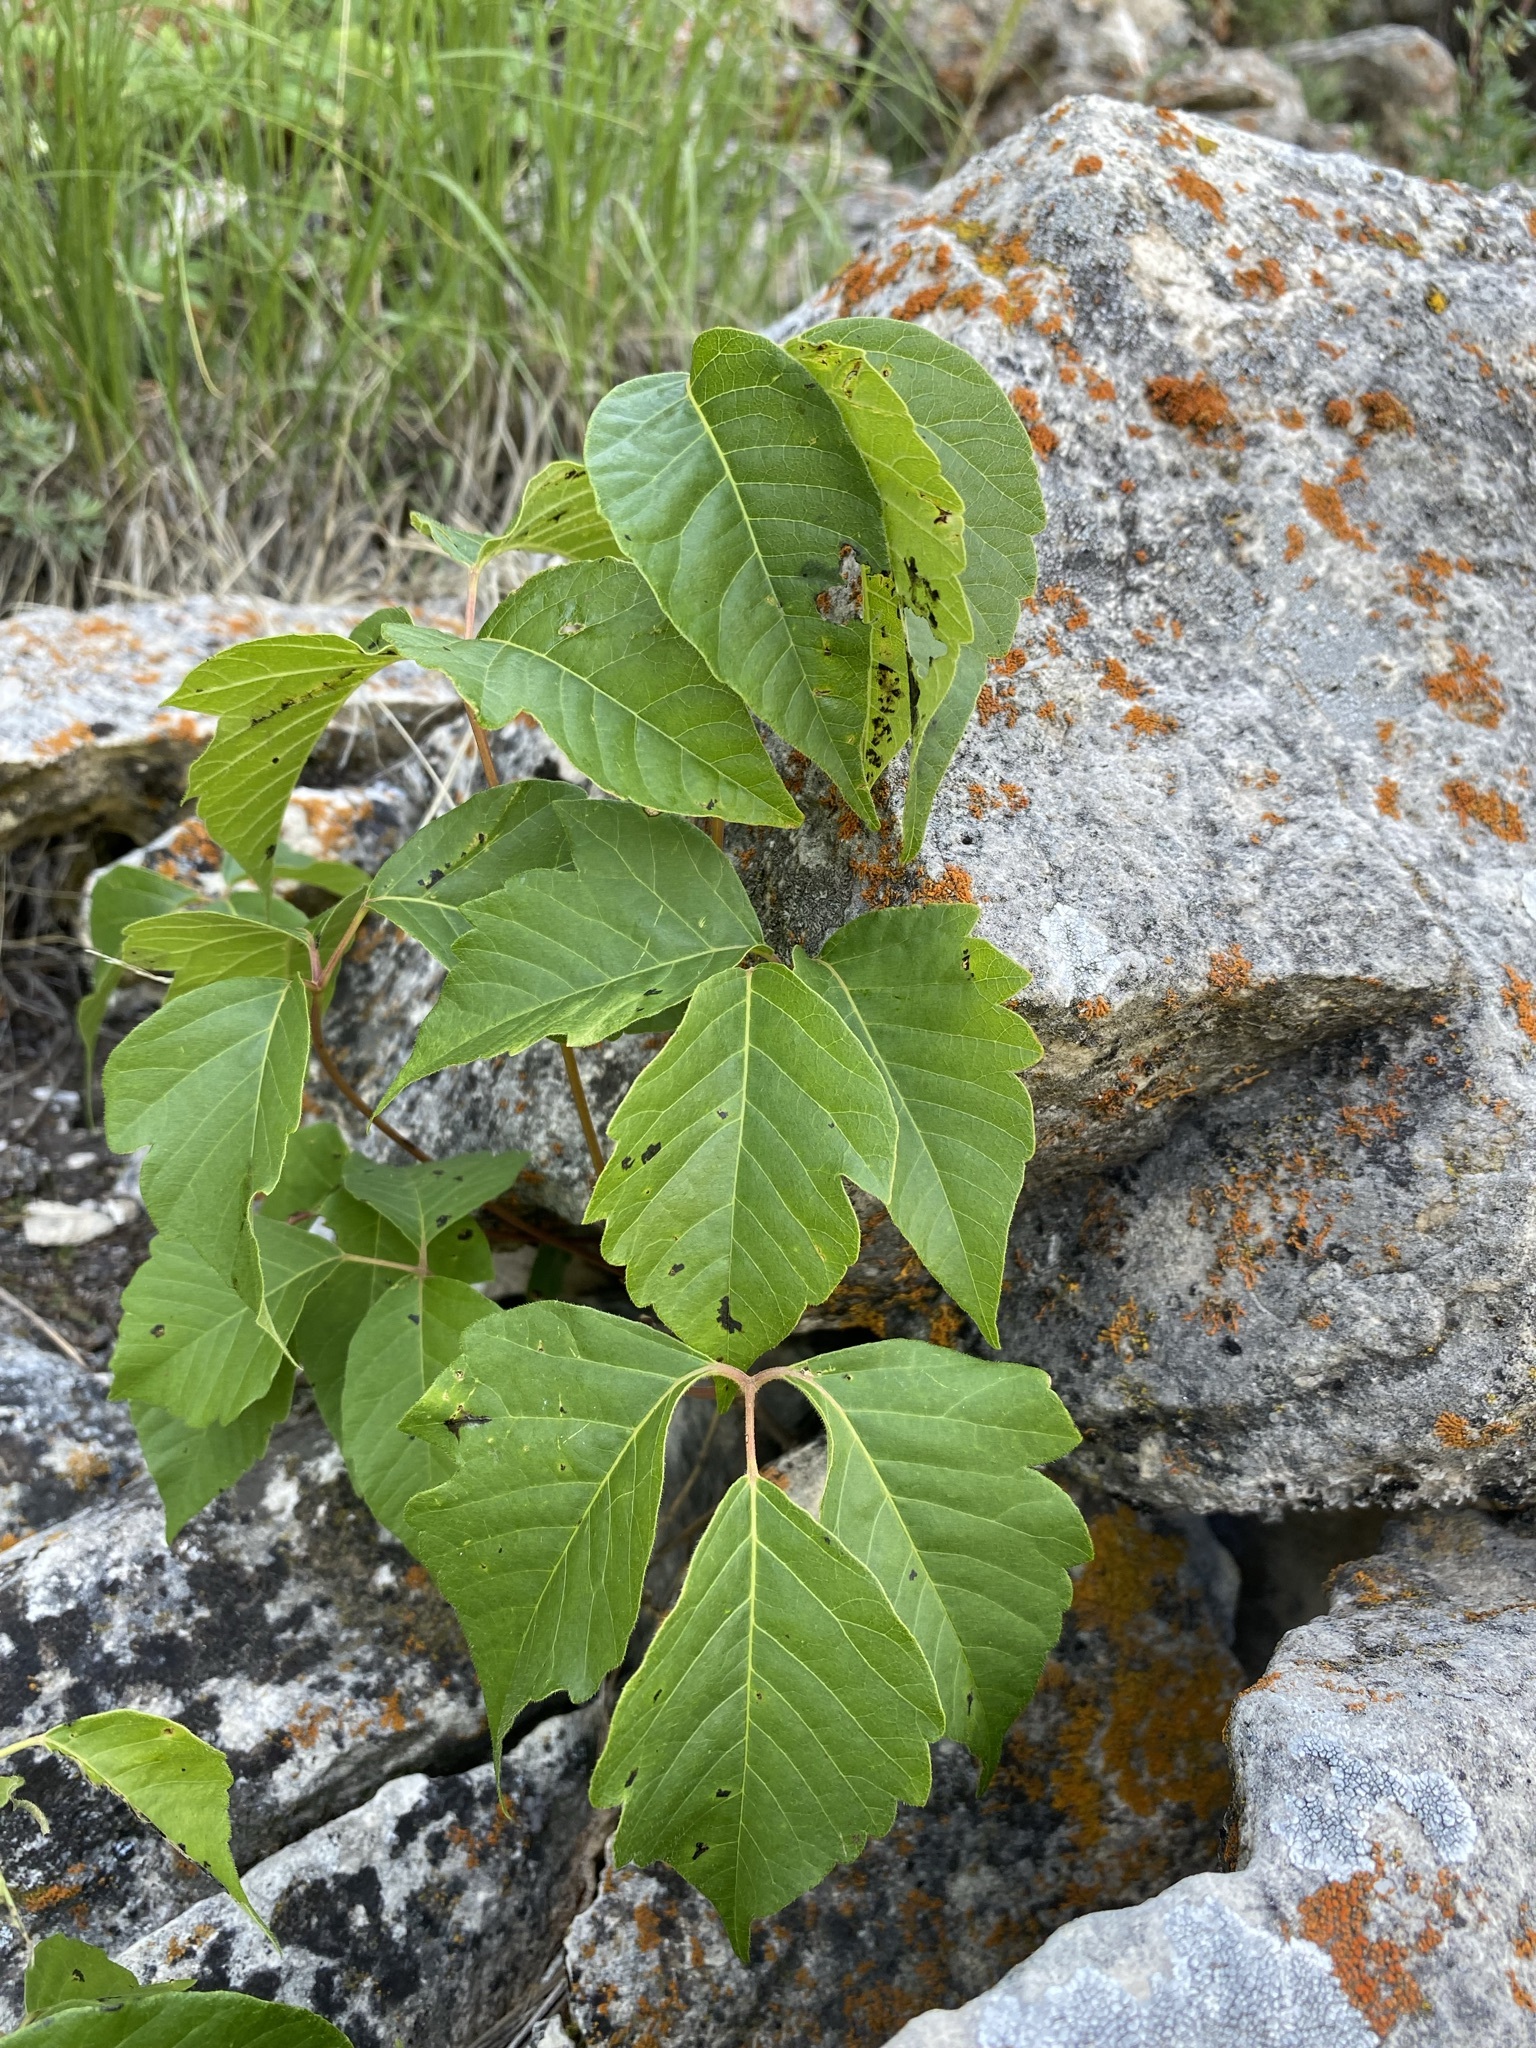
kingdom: Plantae
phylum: Tracheophyta
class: Magnoliopsida
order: Sapindales
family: Anacardiaceae
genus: Toxicodendron
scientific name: Toxicodendron rydbergii
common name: Rydberg's poison-ivy
